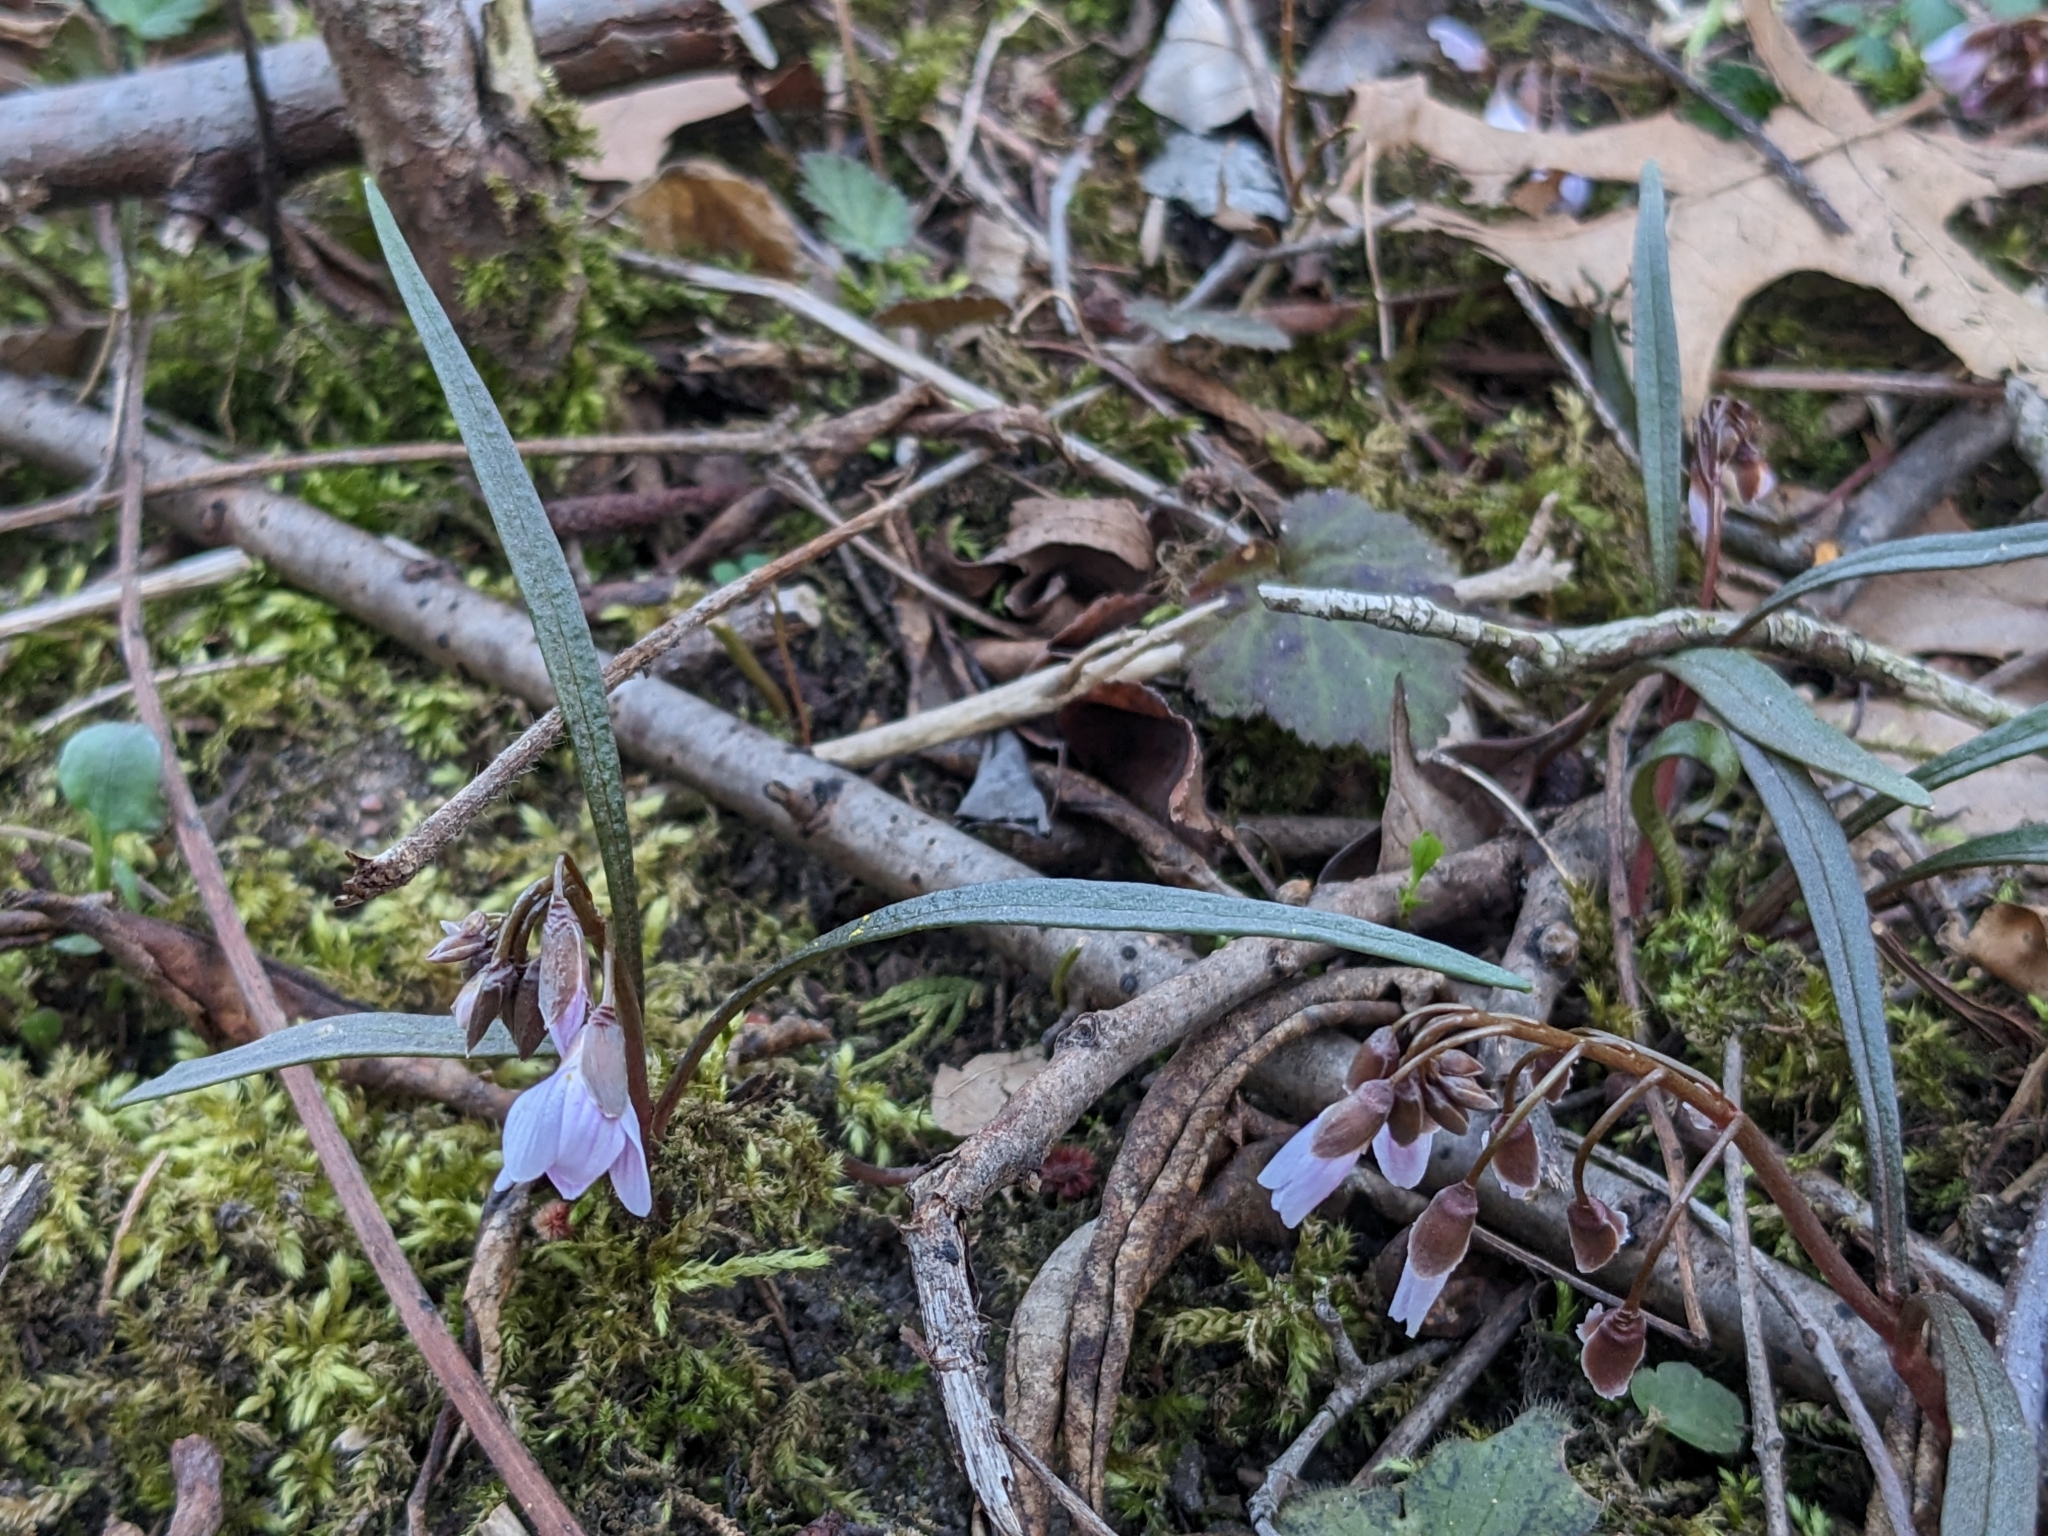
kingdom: Plantae
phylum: Tracheophyta
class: Magnoliopsida
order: Caryophyllales
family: Montiaceae
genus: Claytonia
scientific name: Claytonia virginica
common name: Virginia springbeauty
